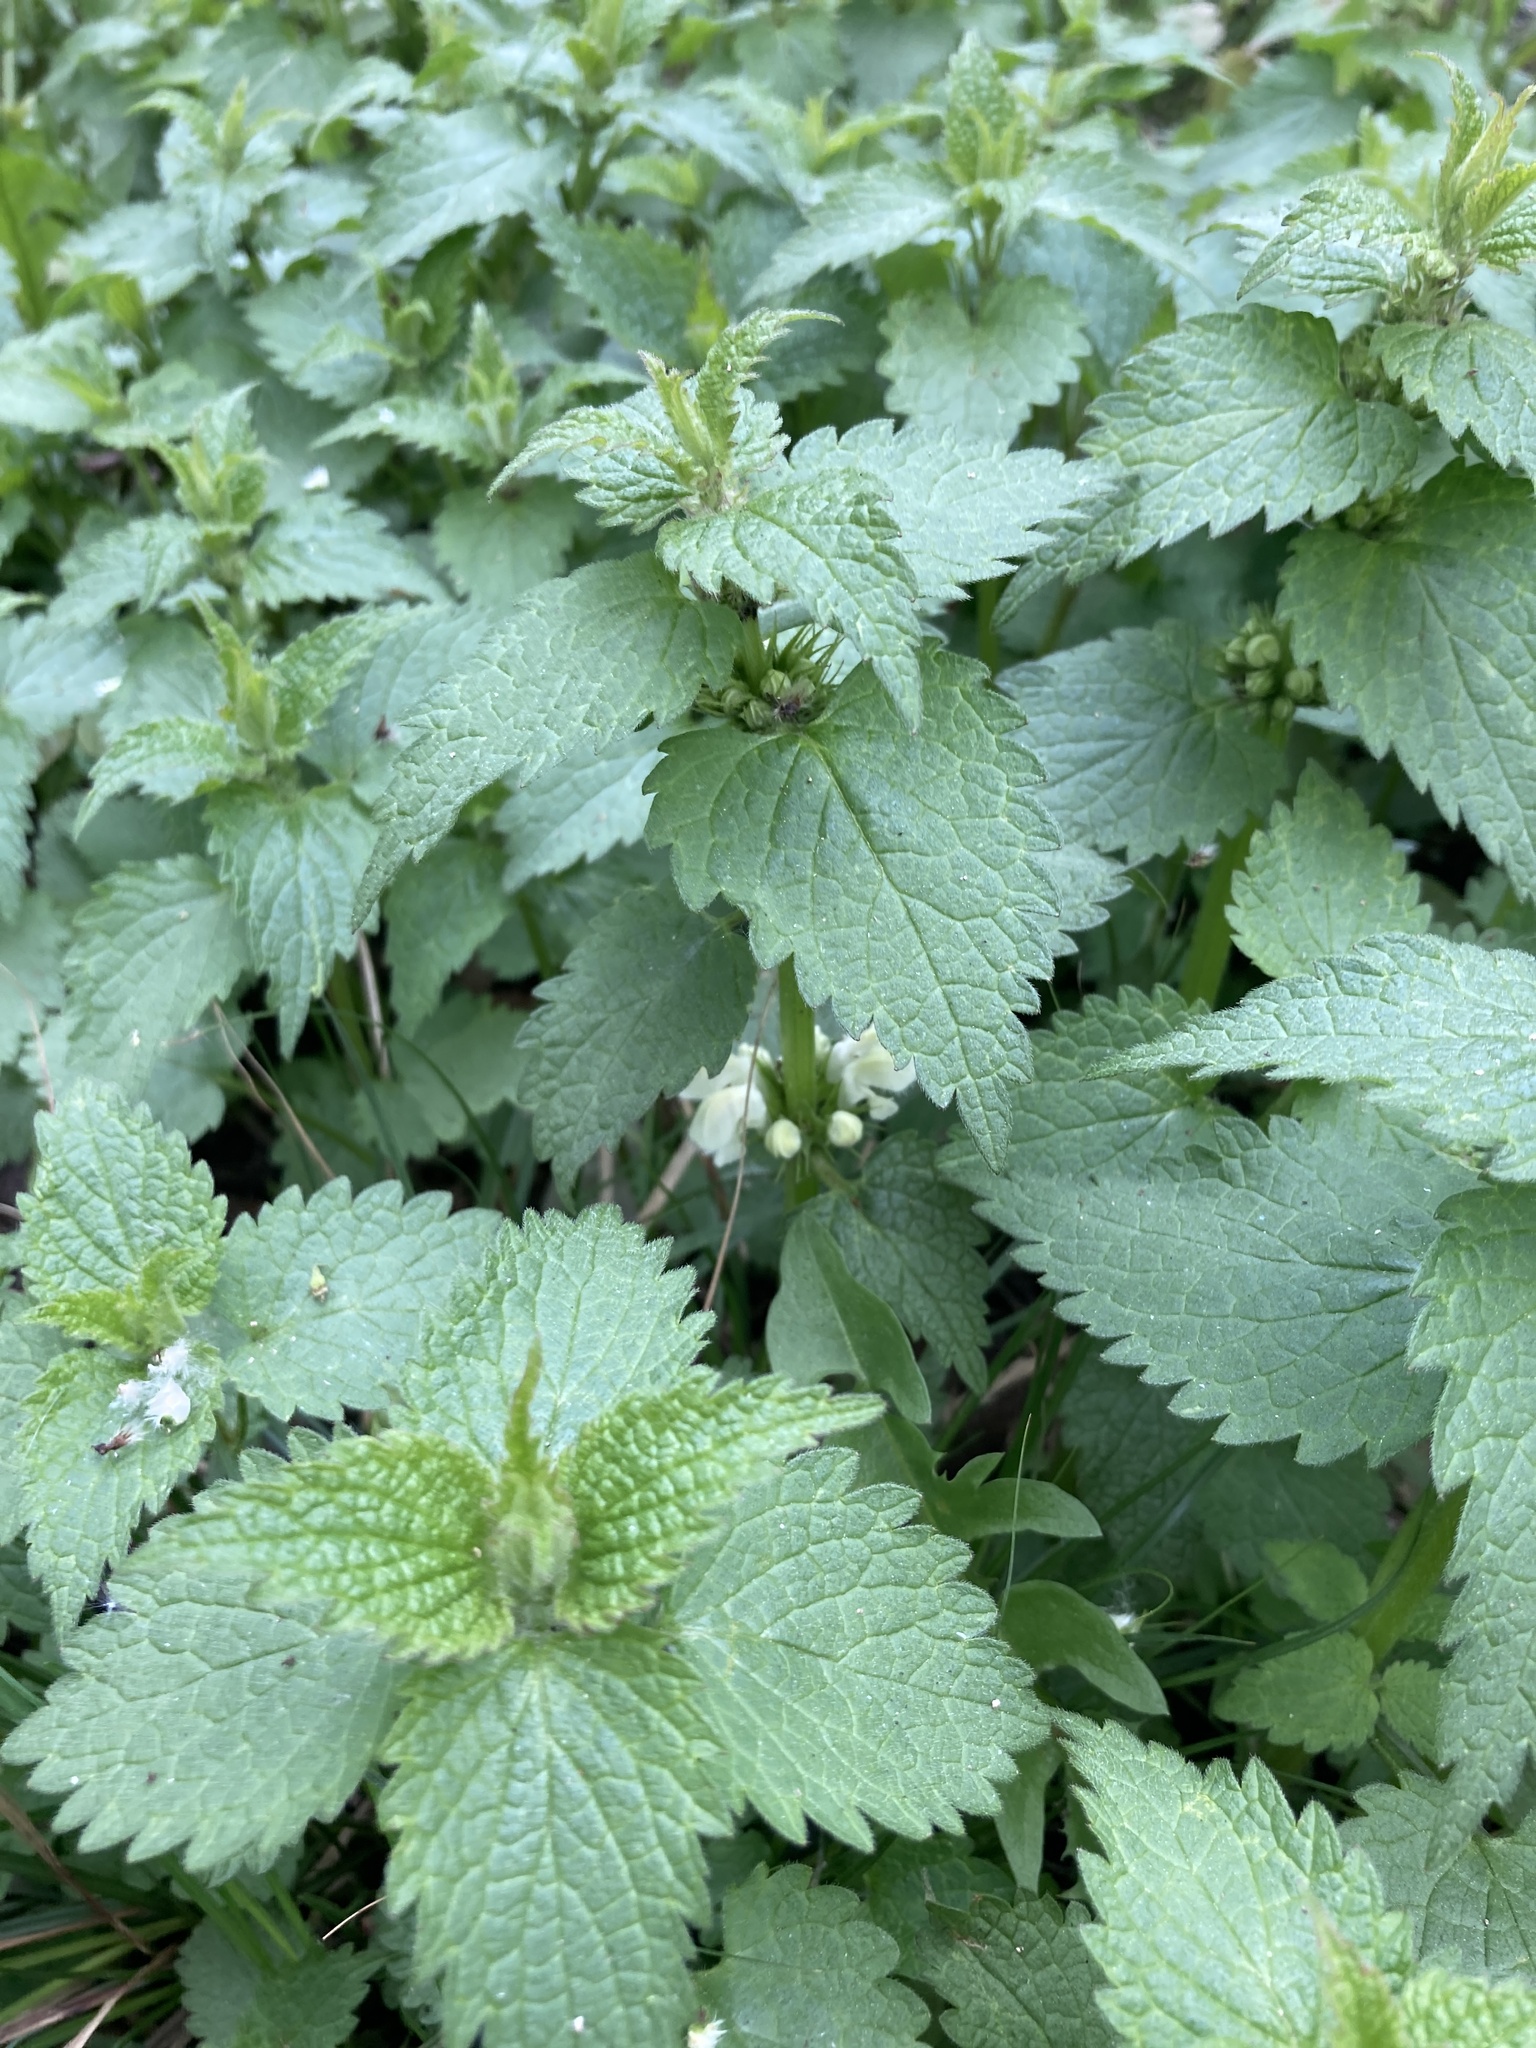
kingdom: Plantae
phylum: Tracheophyta
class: Magnoliopsida
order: Lamiales
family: Lamiaceae
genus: Lamium
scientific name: Lamium album
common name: White dead-nettle
